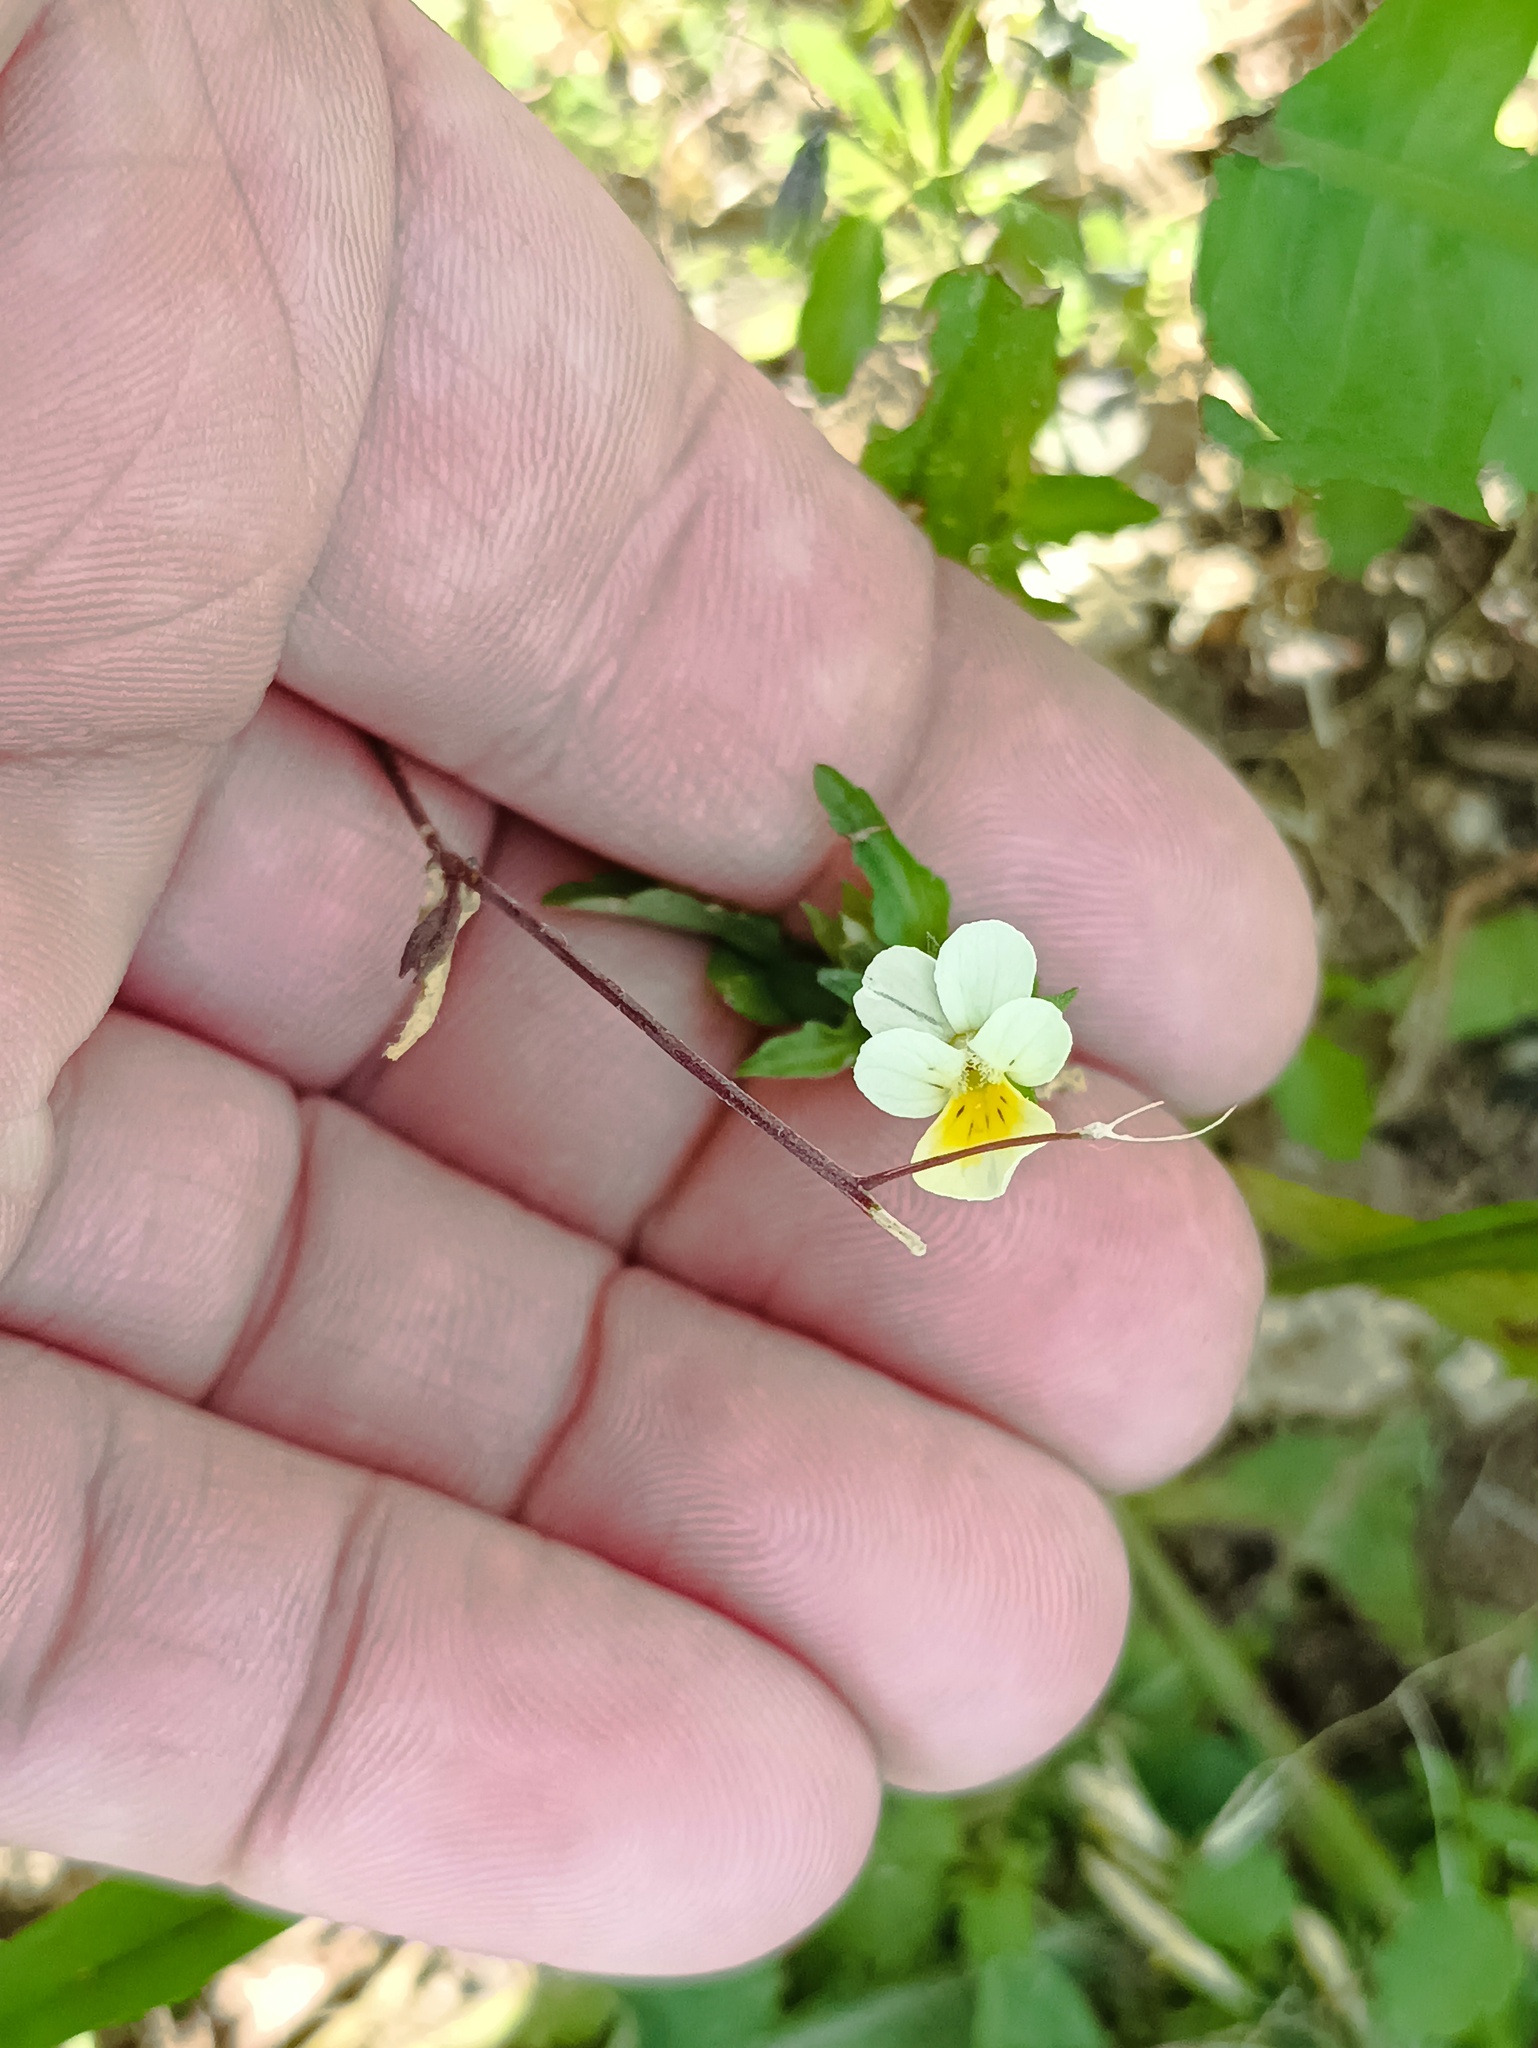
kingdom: Plantae
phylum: Tracheophyta
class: Magnoliopsida
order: Malpighiales
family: Violaceae
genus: Viola
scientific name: Viola arvensis
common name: Field pansy
